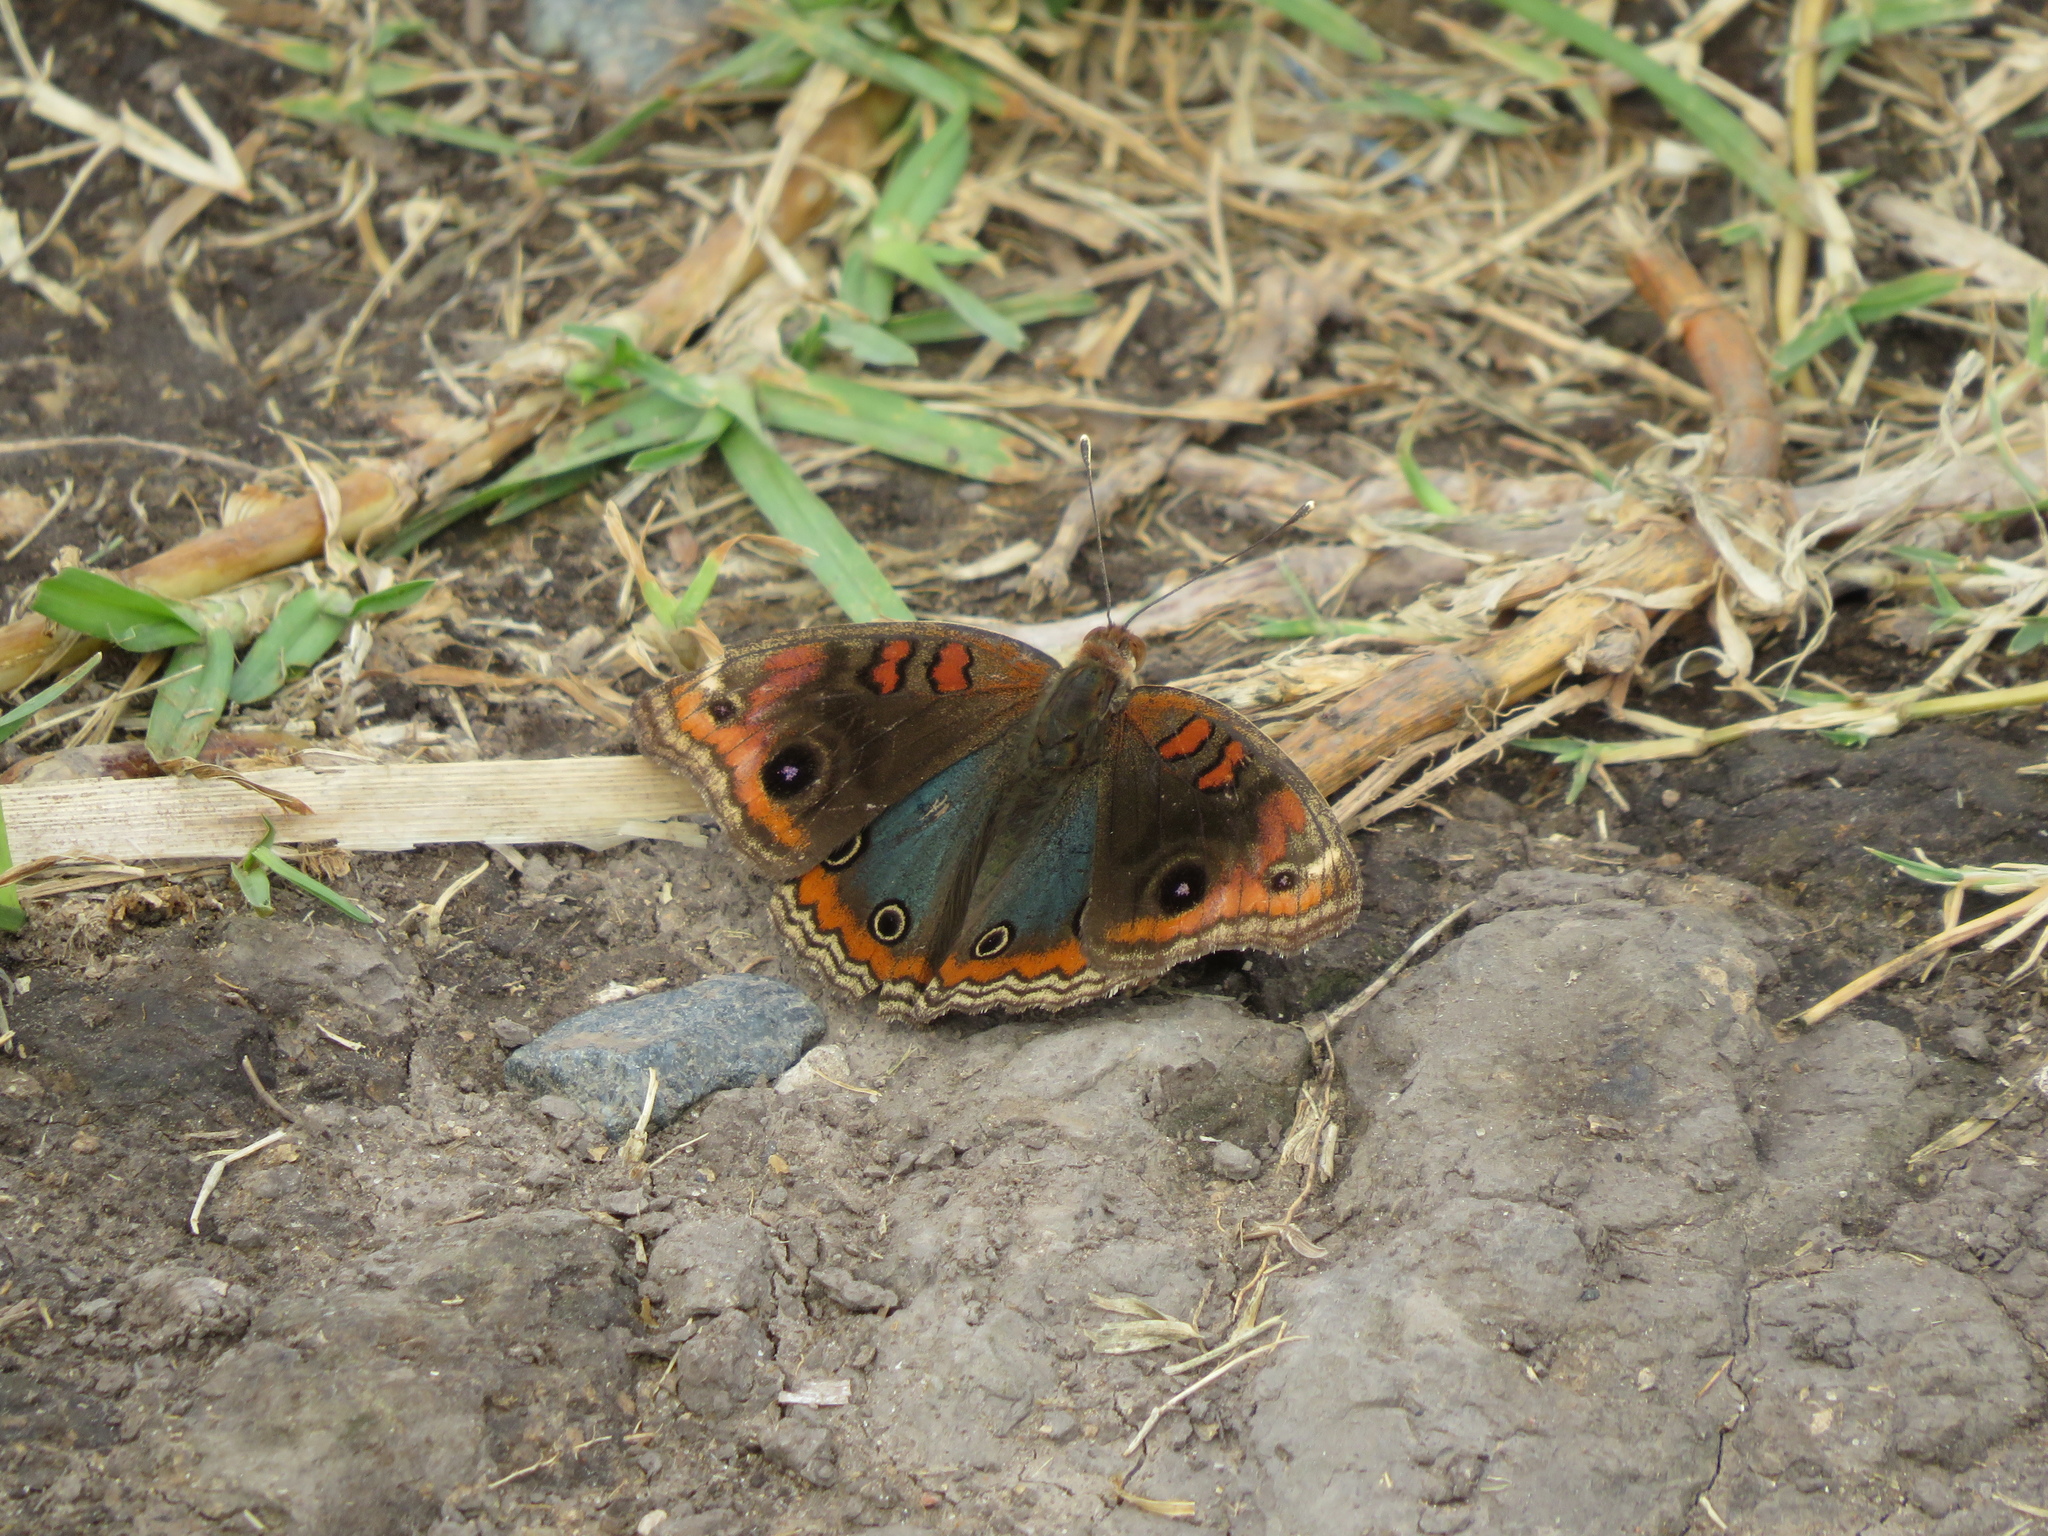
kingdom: Animalia
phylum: Arthropoda
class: Insecta
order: Lepidoptera
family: Nymphalidae
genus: Junonia
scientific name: Junonia lavinia
